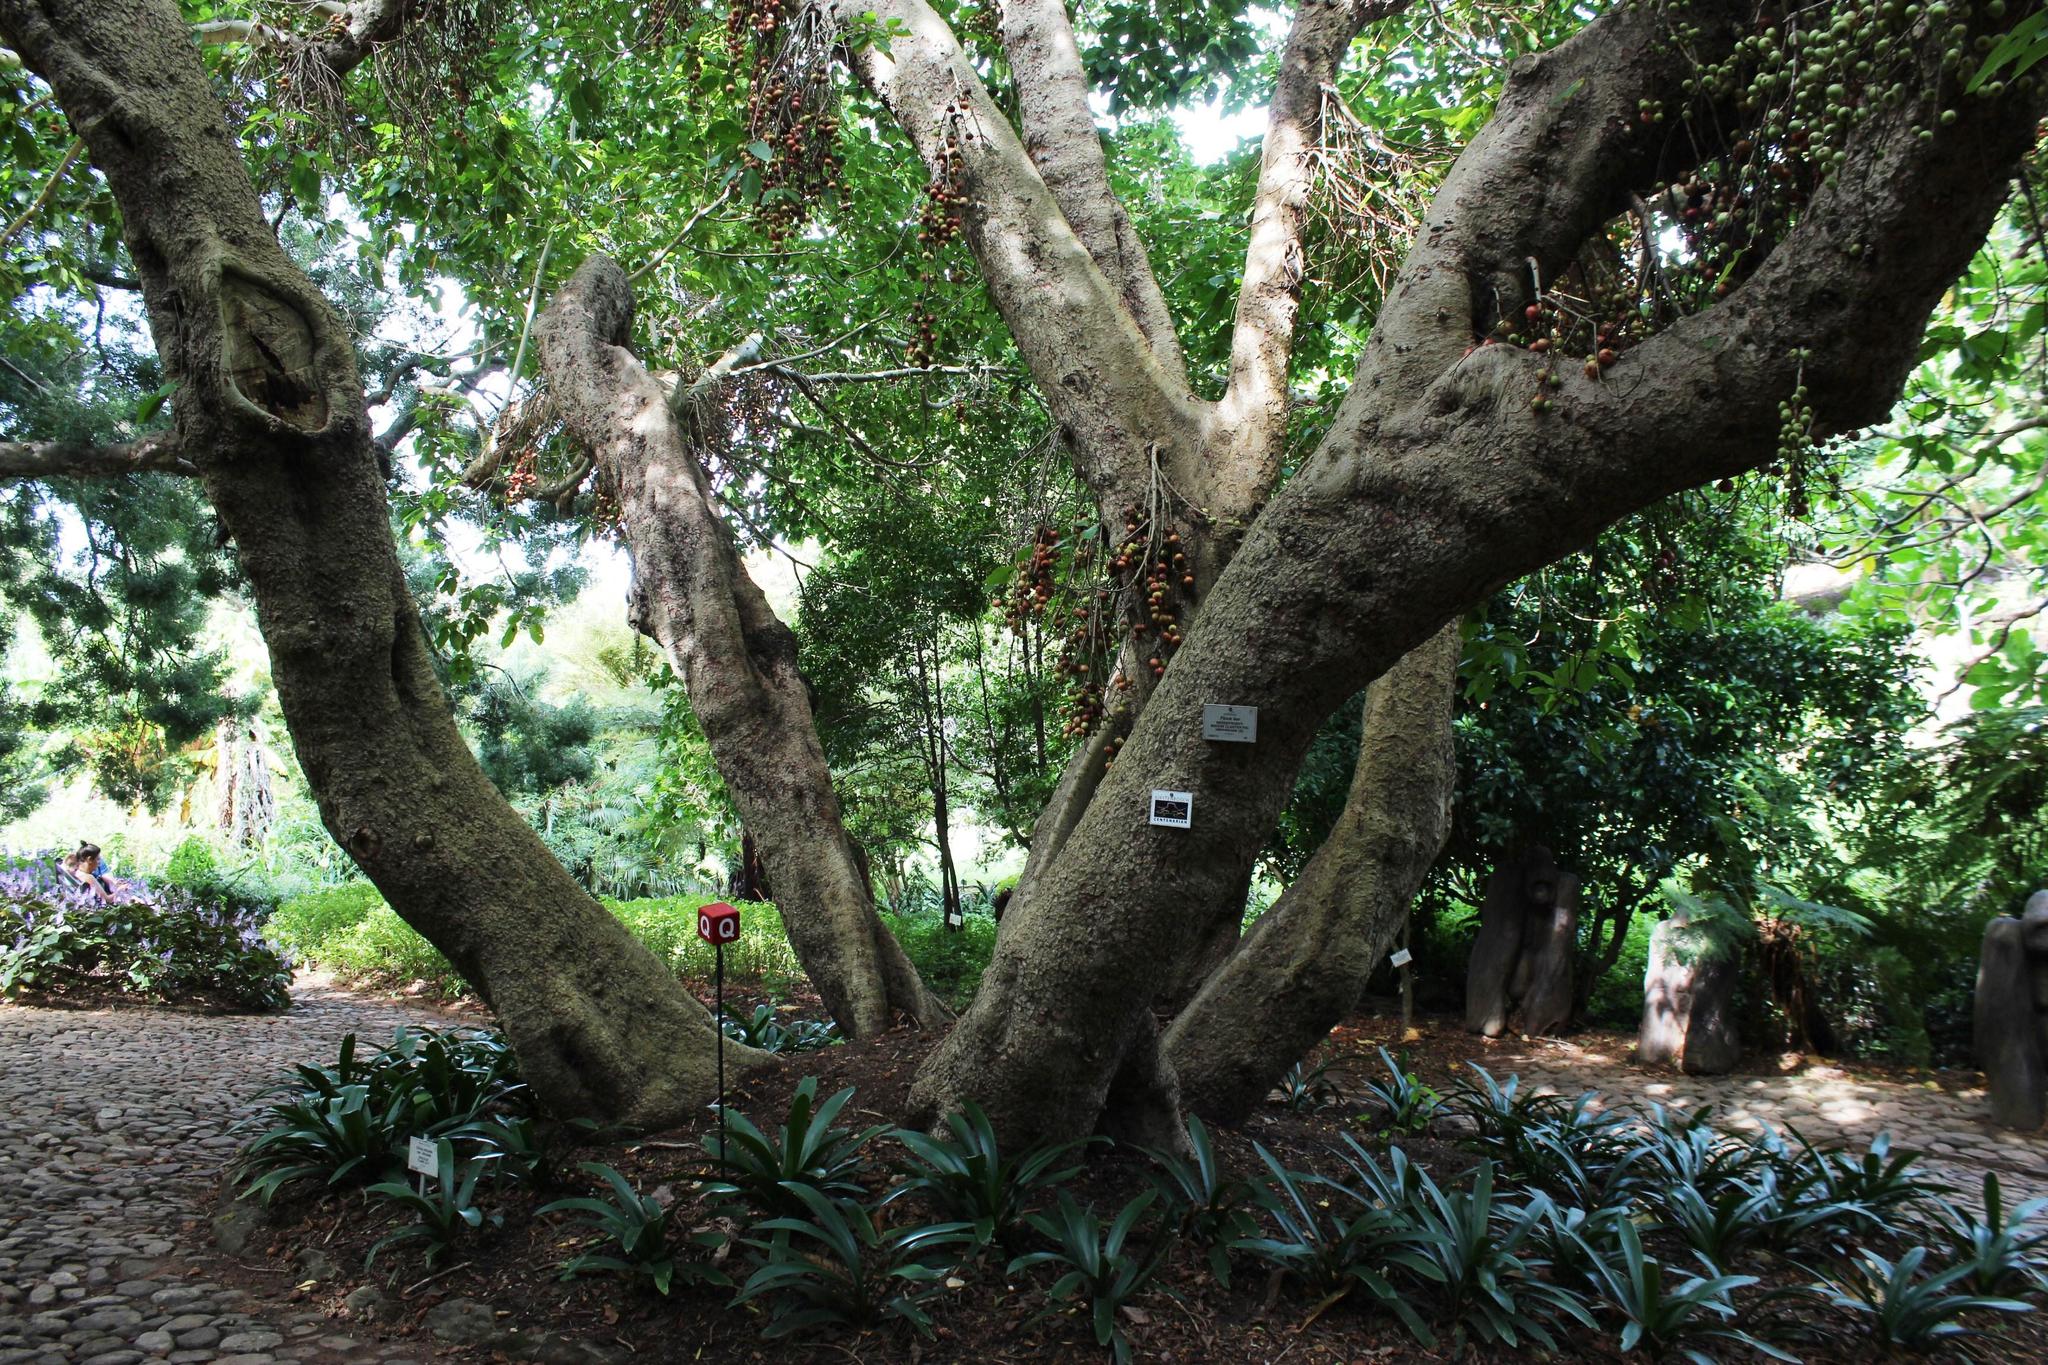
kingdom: Plantae
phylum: Tracheophyta
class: Magnoliopsida
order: Rosales
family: Moraceae
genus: Ficus
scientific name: Ficus sur
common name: Cape fig
